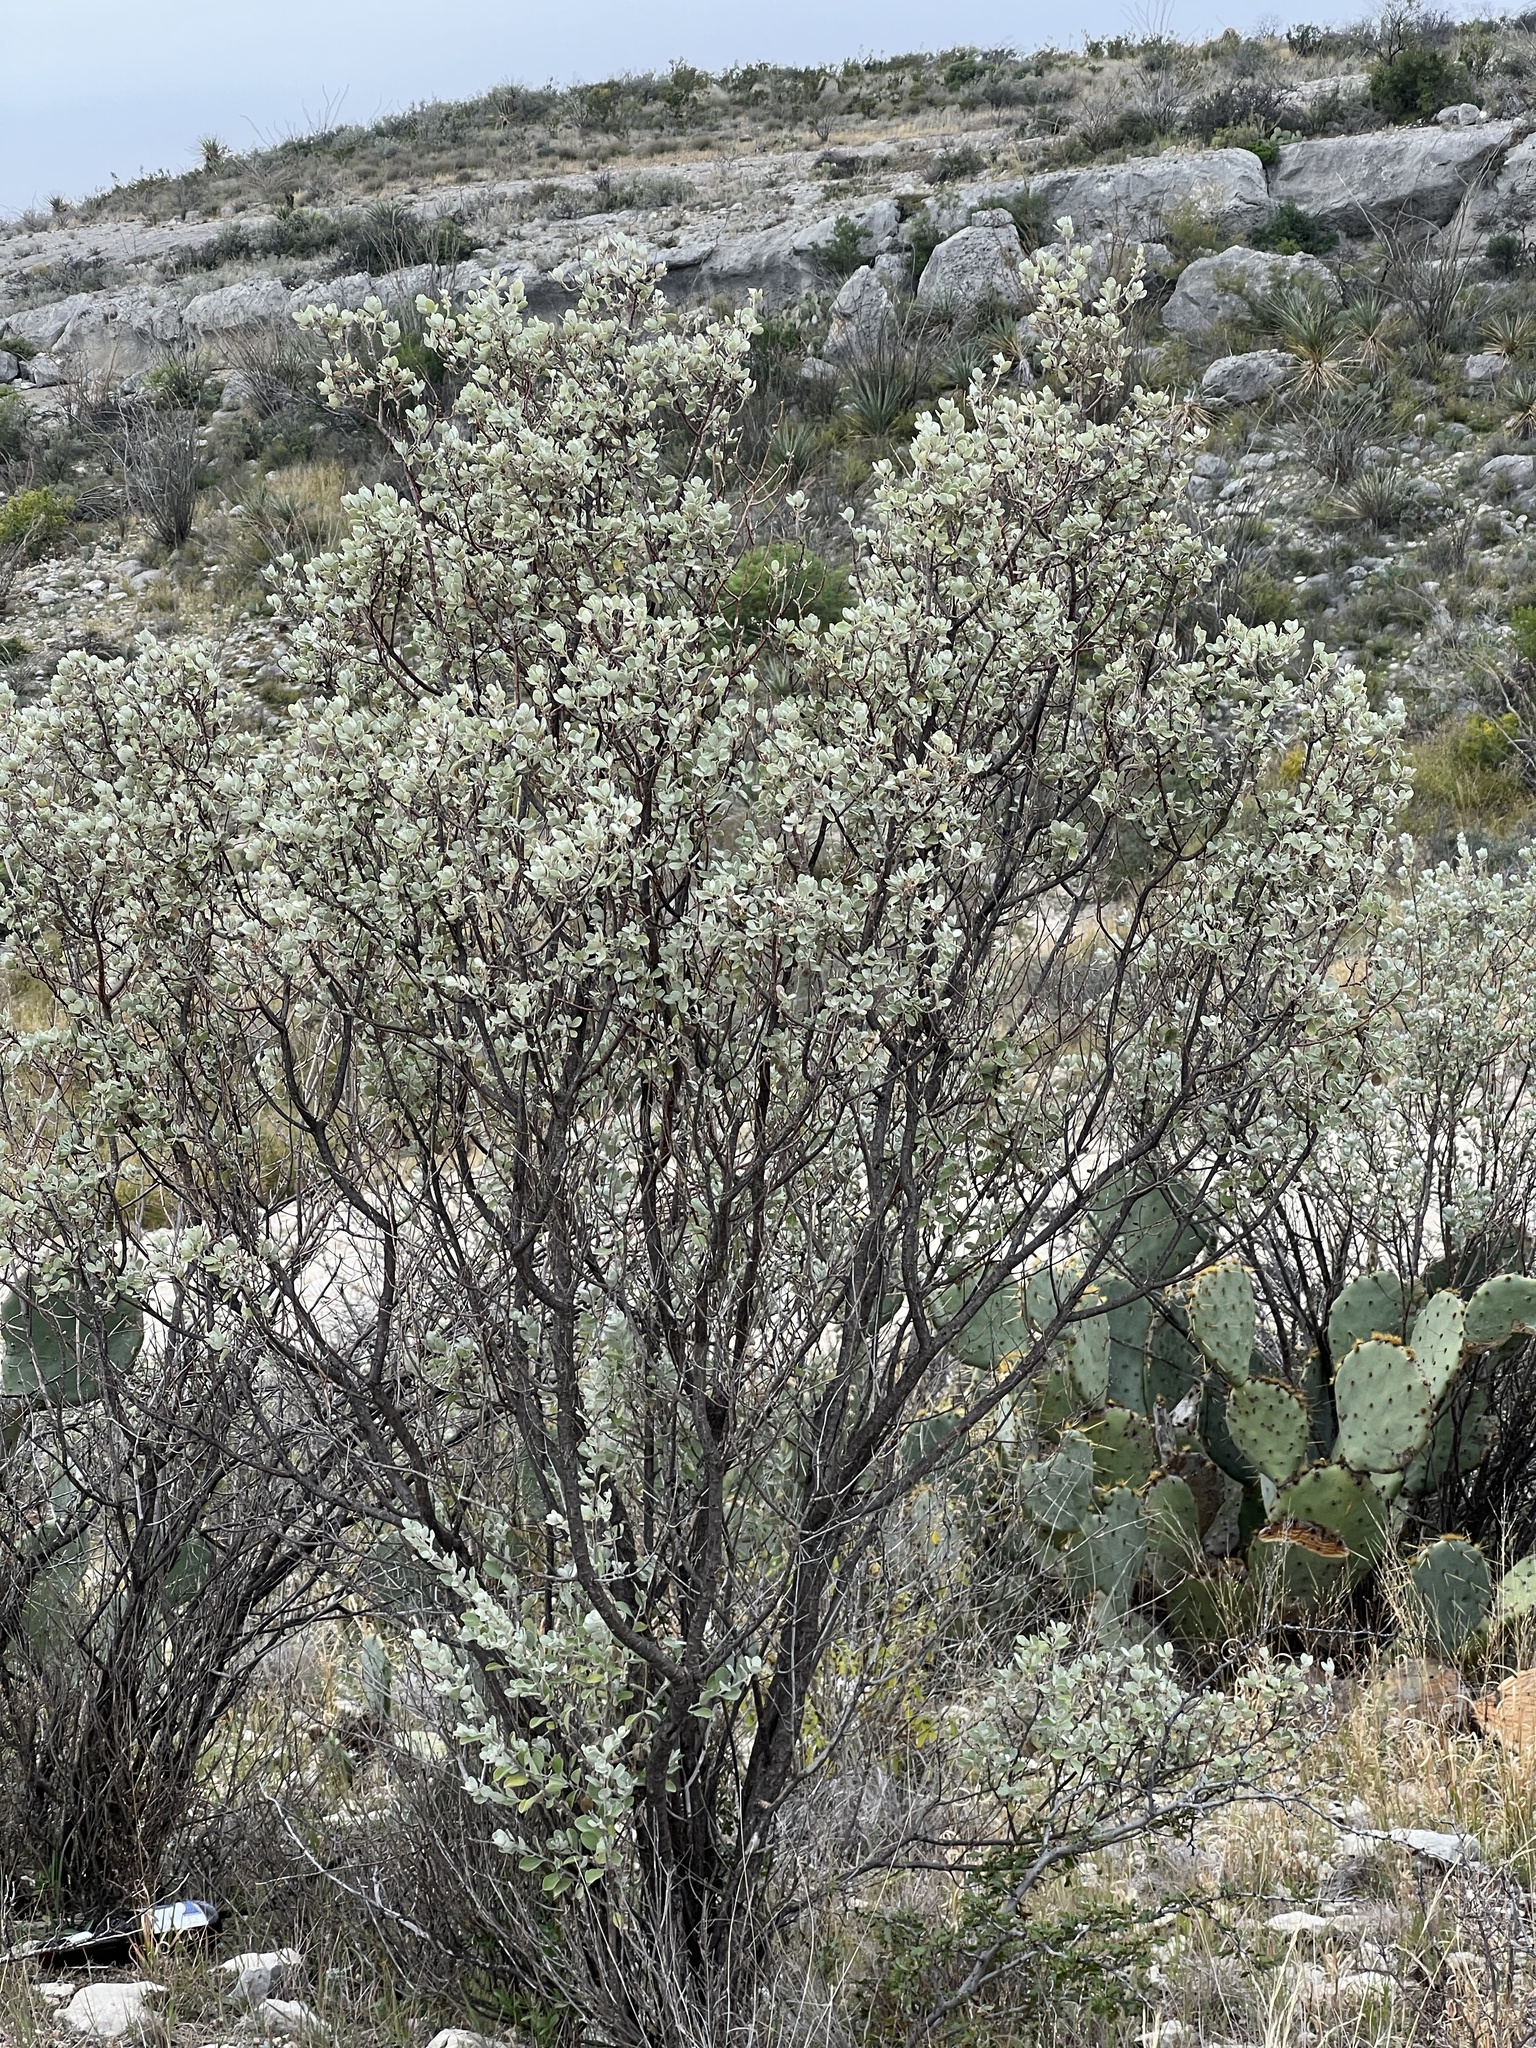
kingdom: Plantae
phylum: Tracheophyta
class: Magnoliopsida
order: Lamiales
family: Scrophulariaceae
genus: Leucophyllum
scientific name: Leucophyllum frutescens
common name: Texas silverleaf
